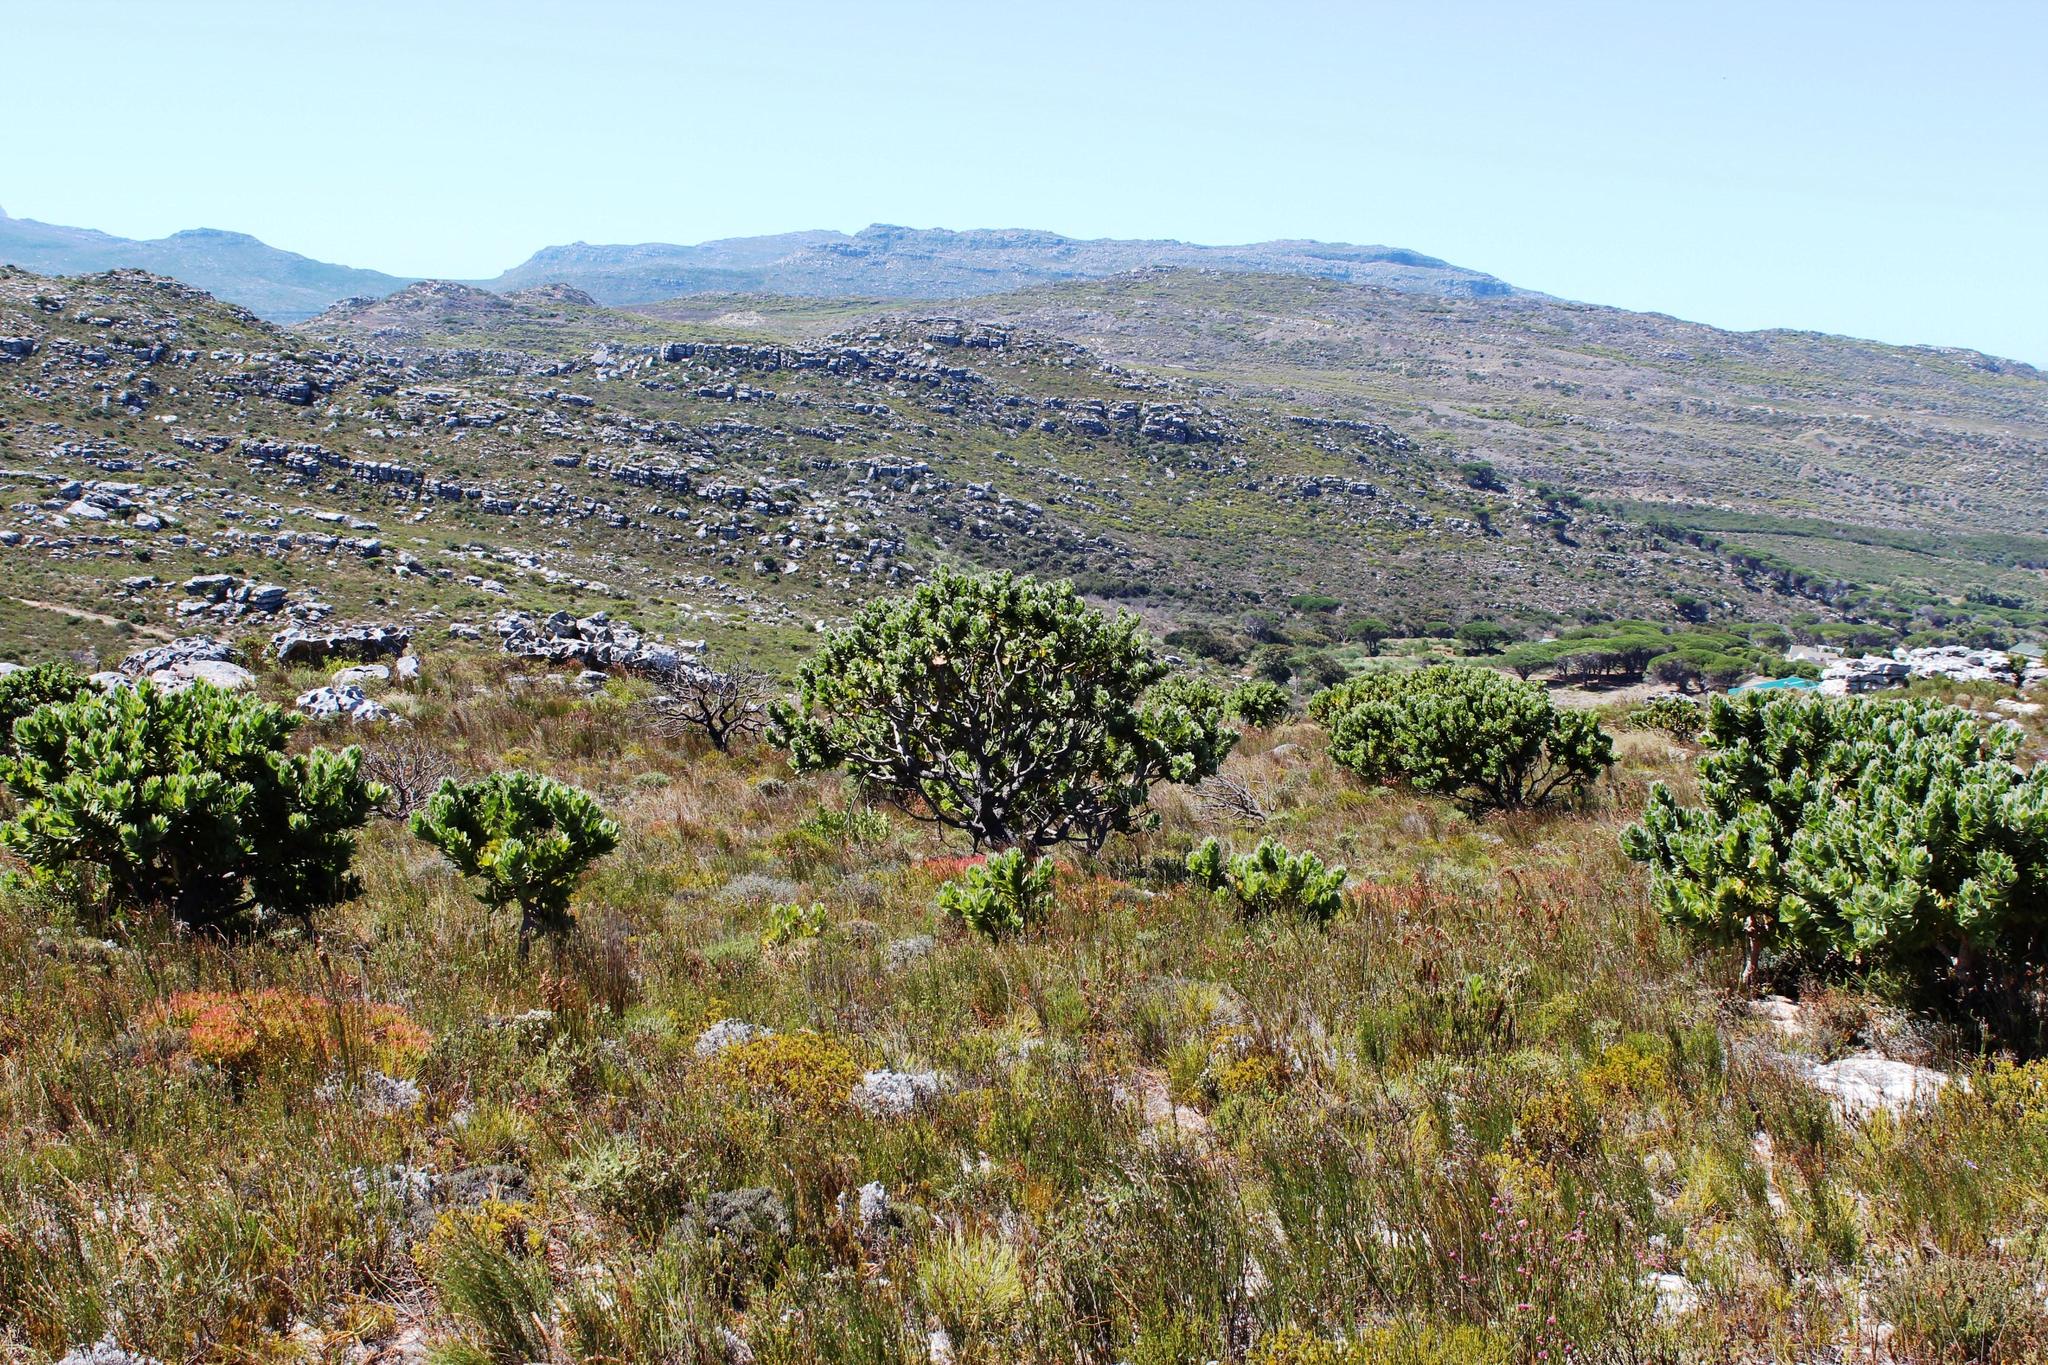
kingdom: Plantae
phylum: Tracheophyta
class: Magnoliopsida
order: Proteales
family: Proteaceae
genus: Leucospermum
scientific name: Leucospermum conocarpodendron
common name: Tree pincushion
